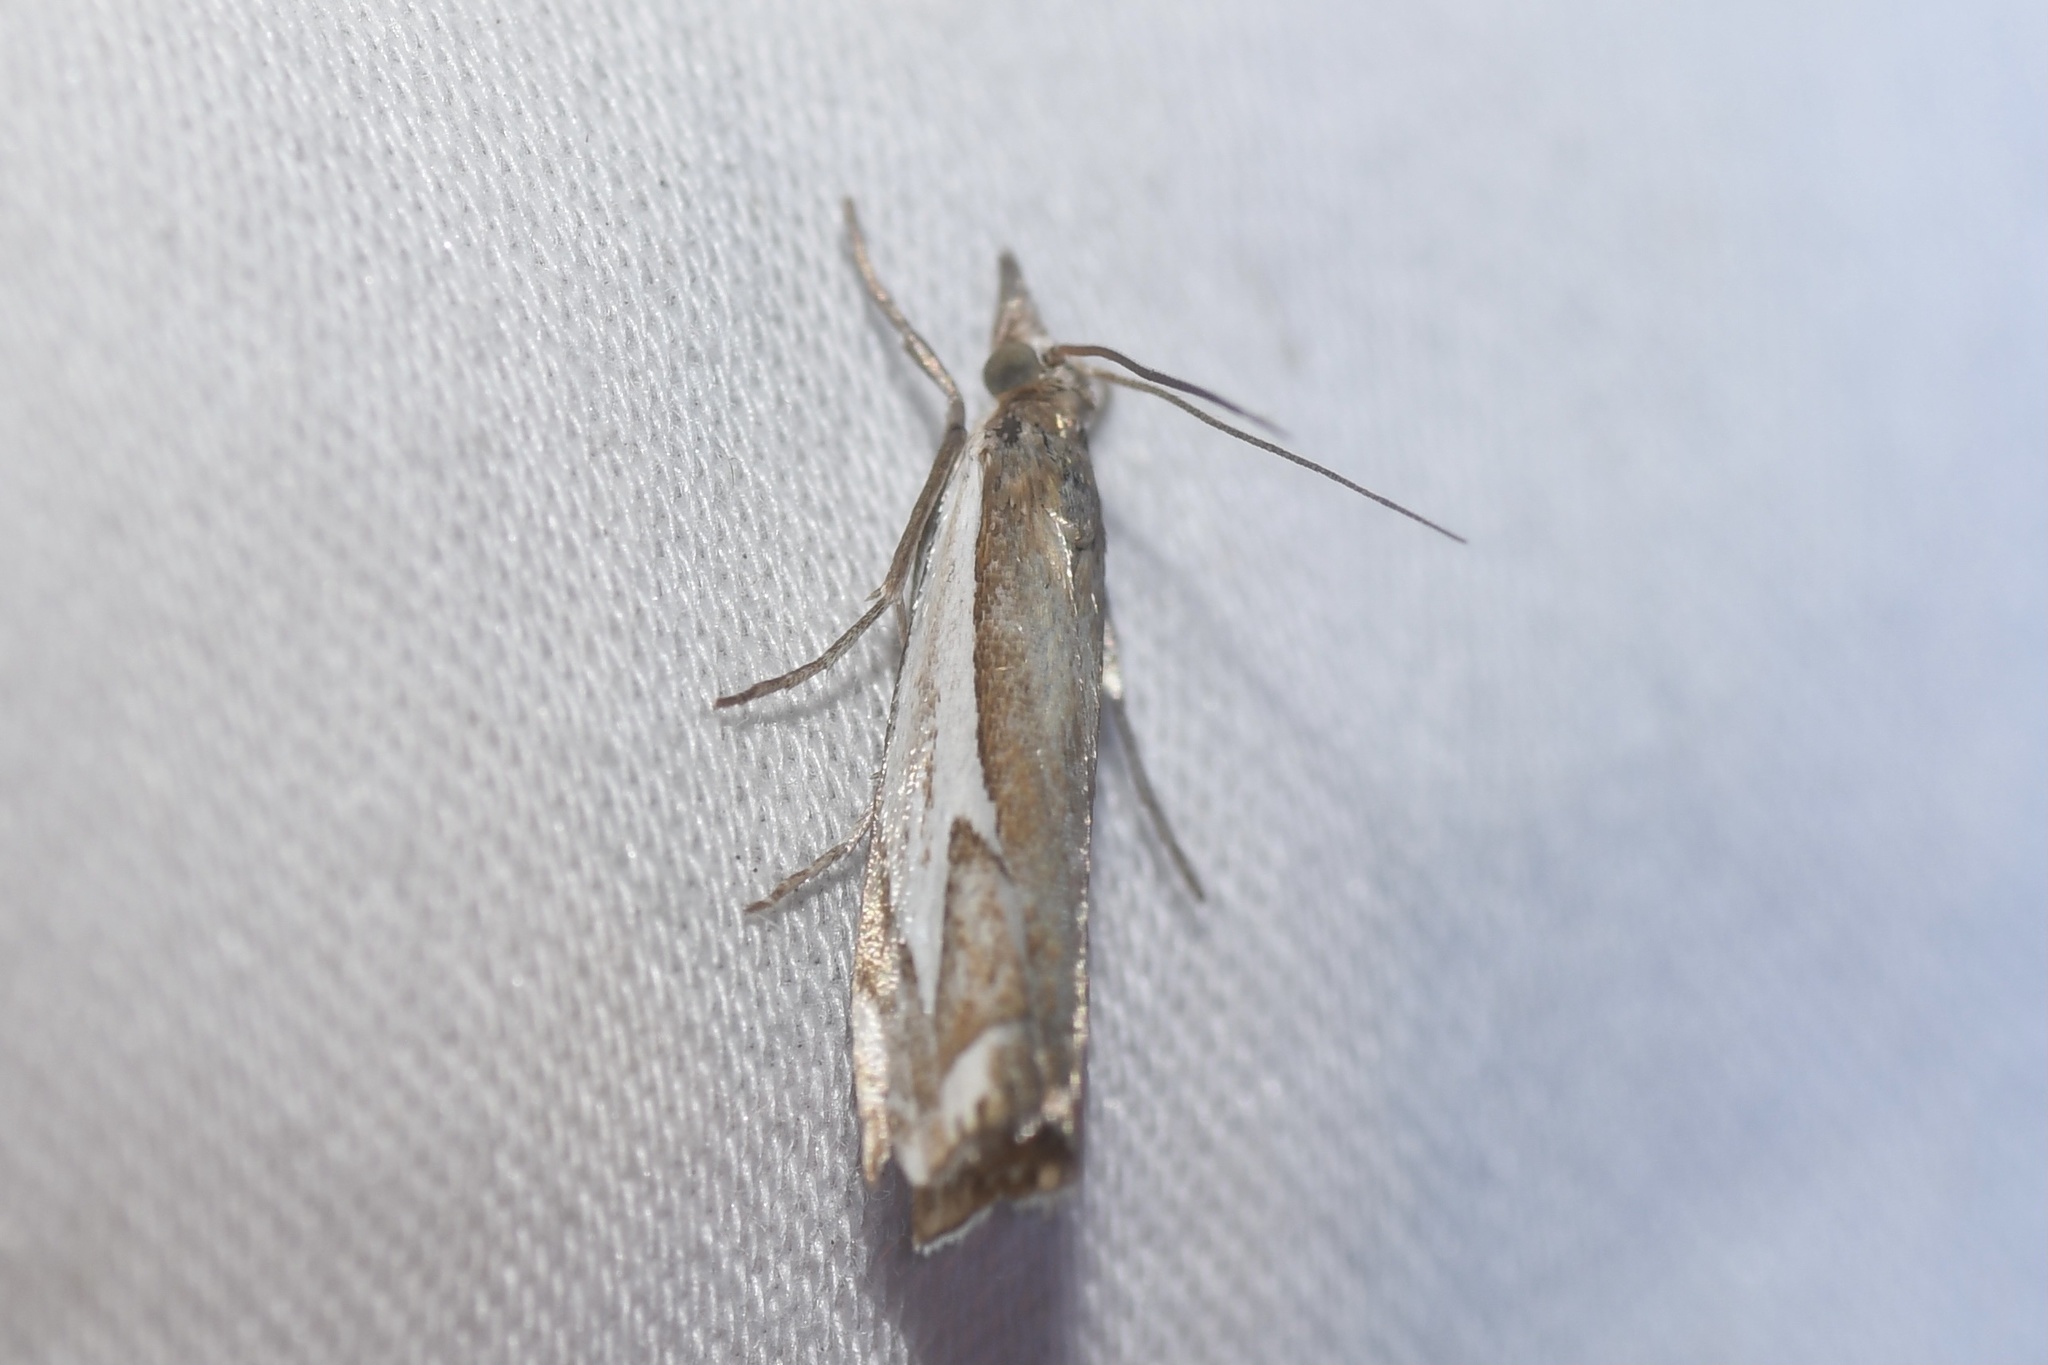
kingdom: Animalia
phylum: Arthropoda
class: Insecta
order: Lepidoptera
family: Crambidae
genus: Crambus
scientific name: Crambus bidens
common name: Forked grass-veneer
